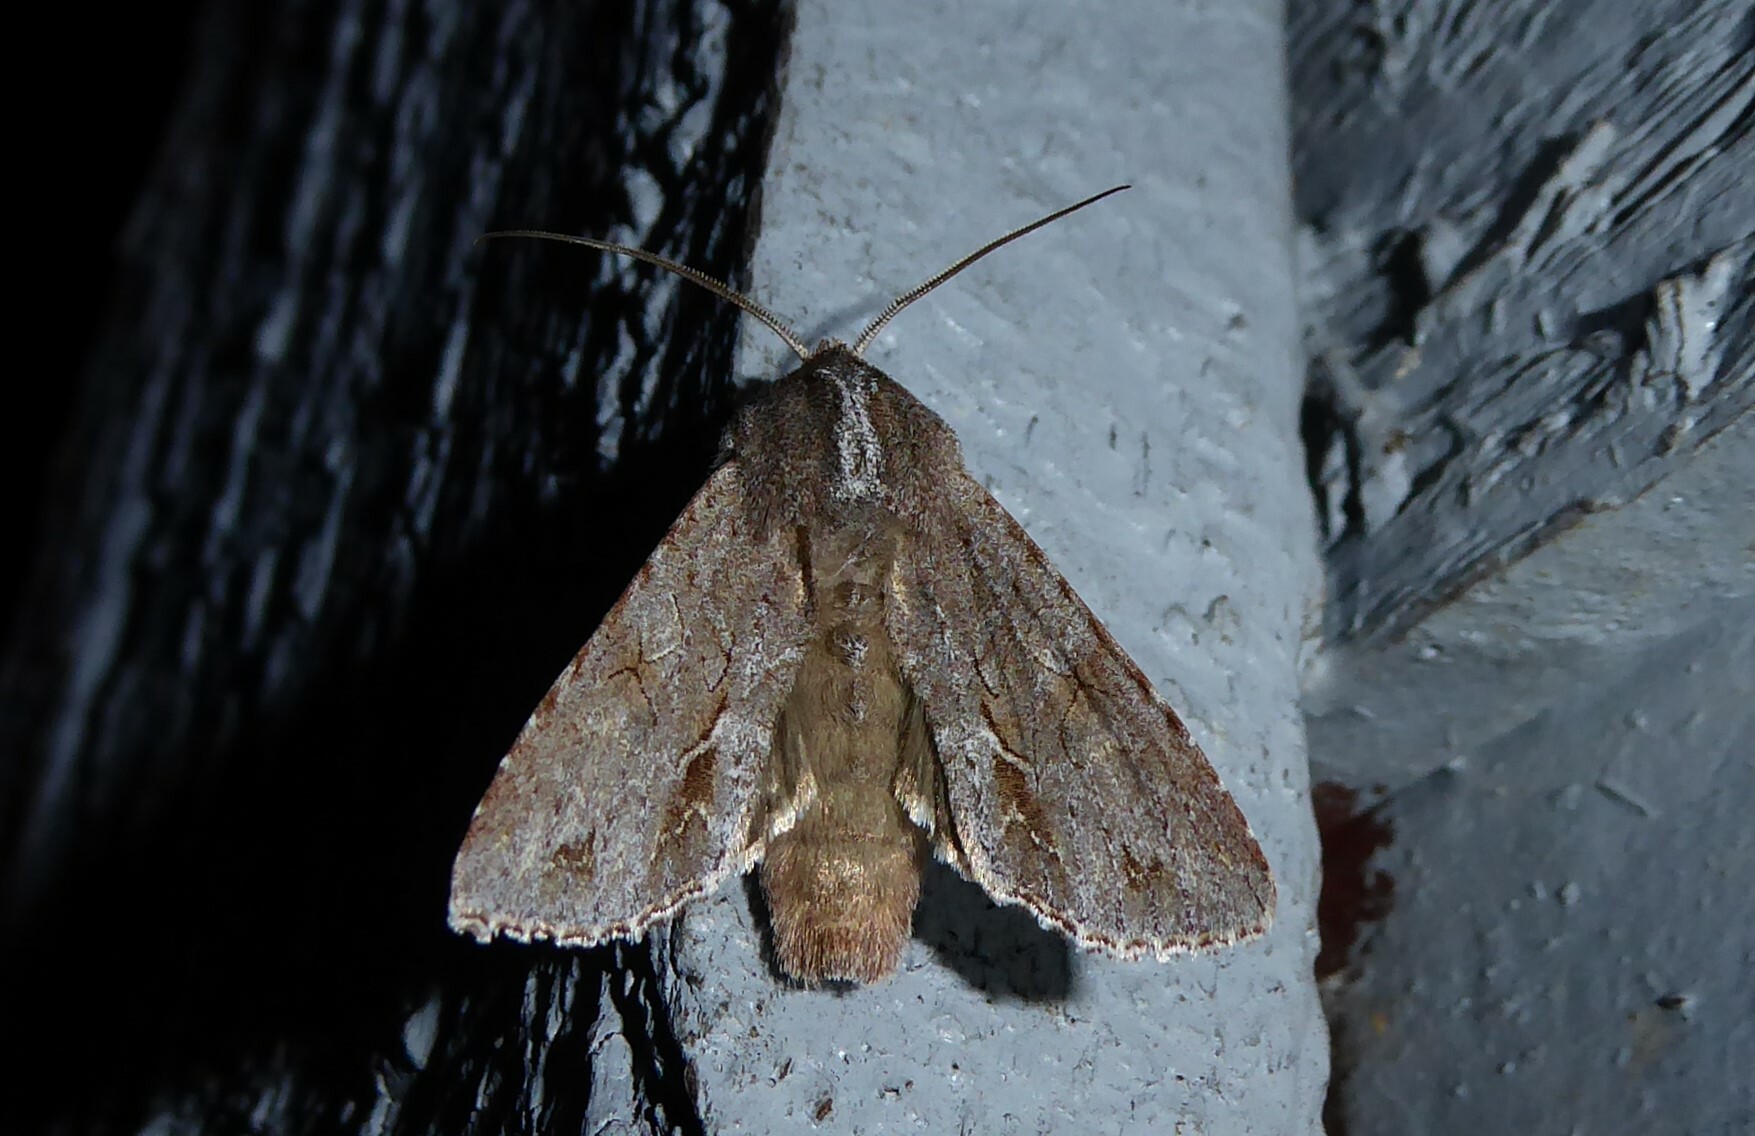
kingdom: Animalia
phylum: Arthropoda
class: Insecta
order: Lepidoptera
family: Noctuidae
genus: Ichneutica
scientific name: Ichneutica
